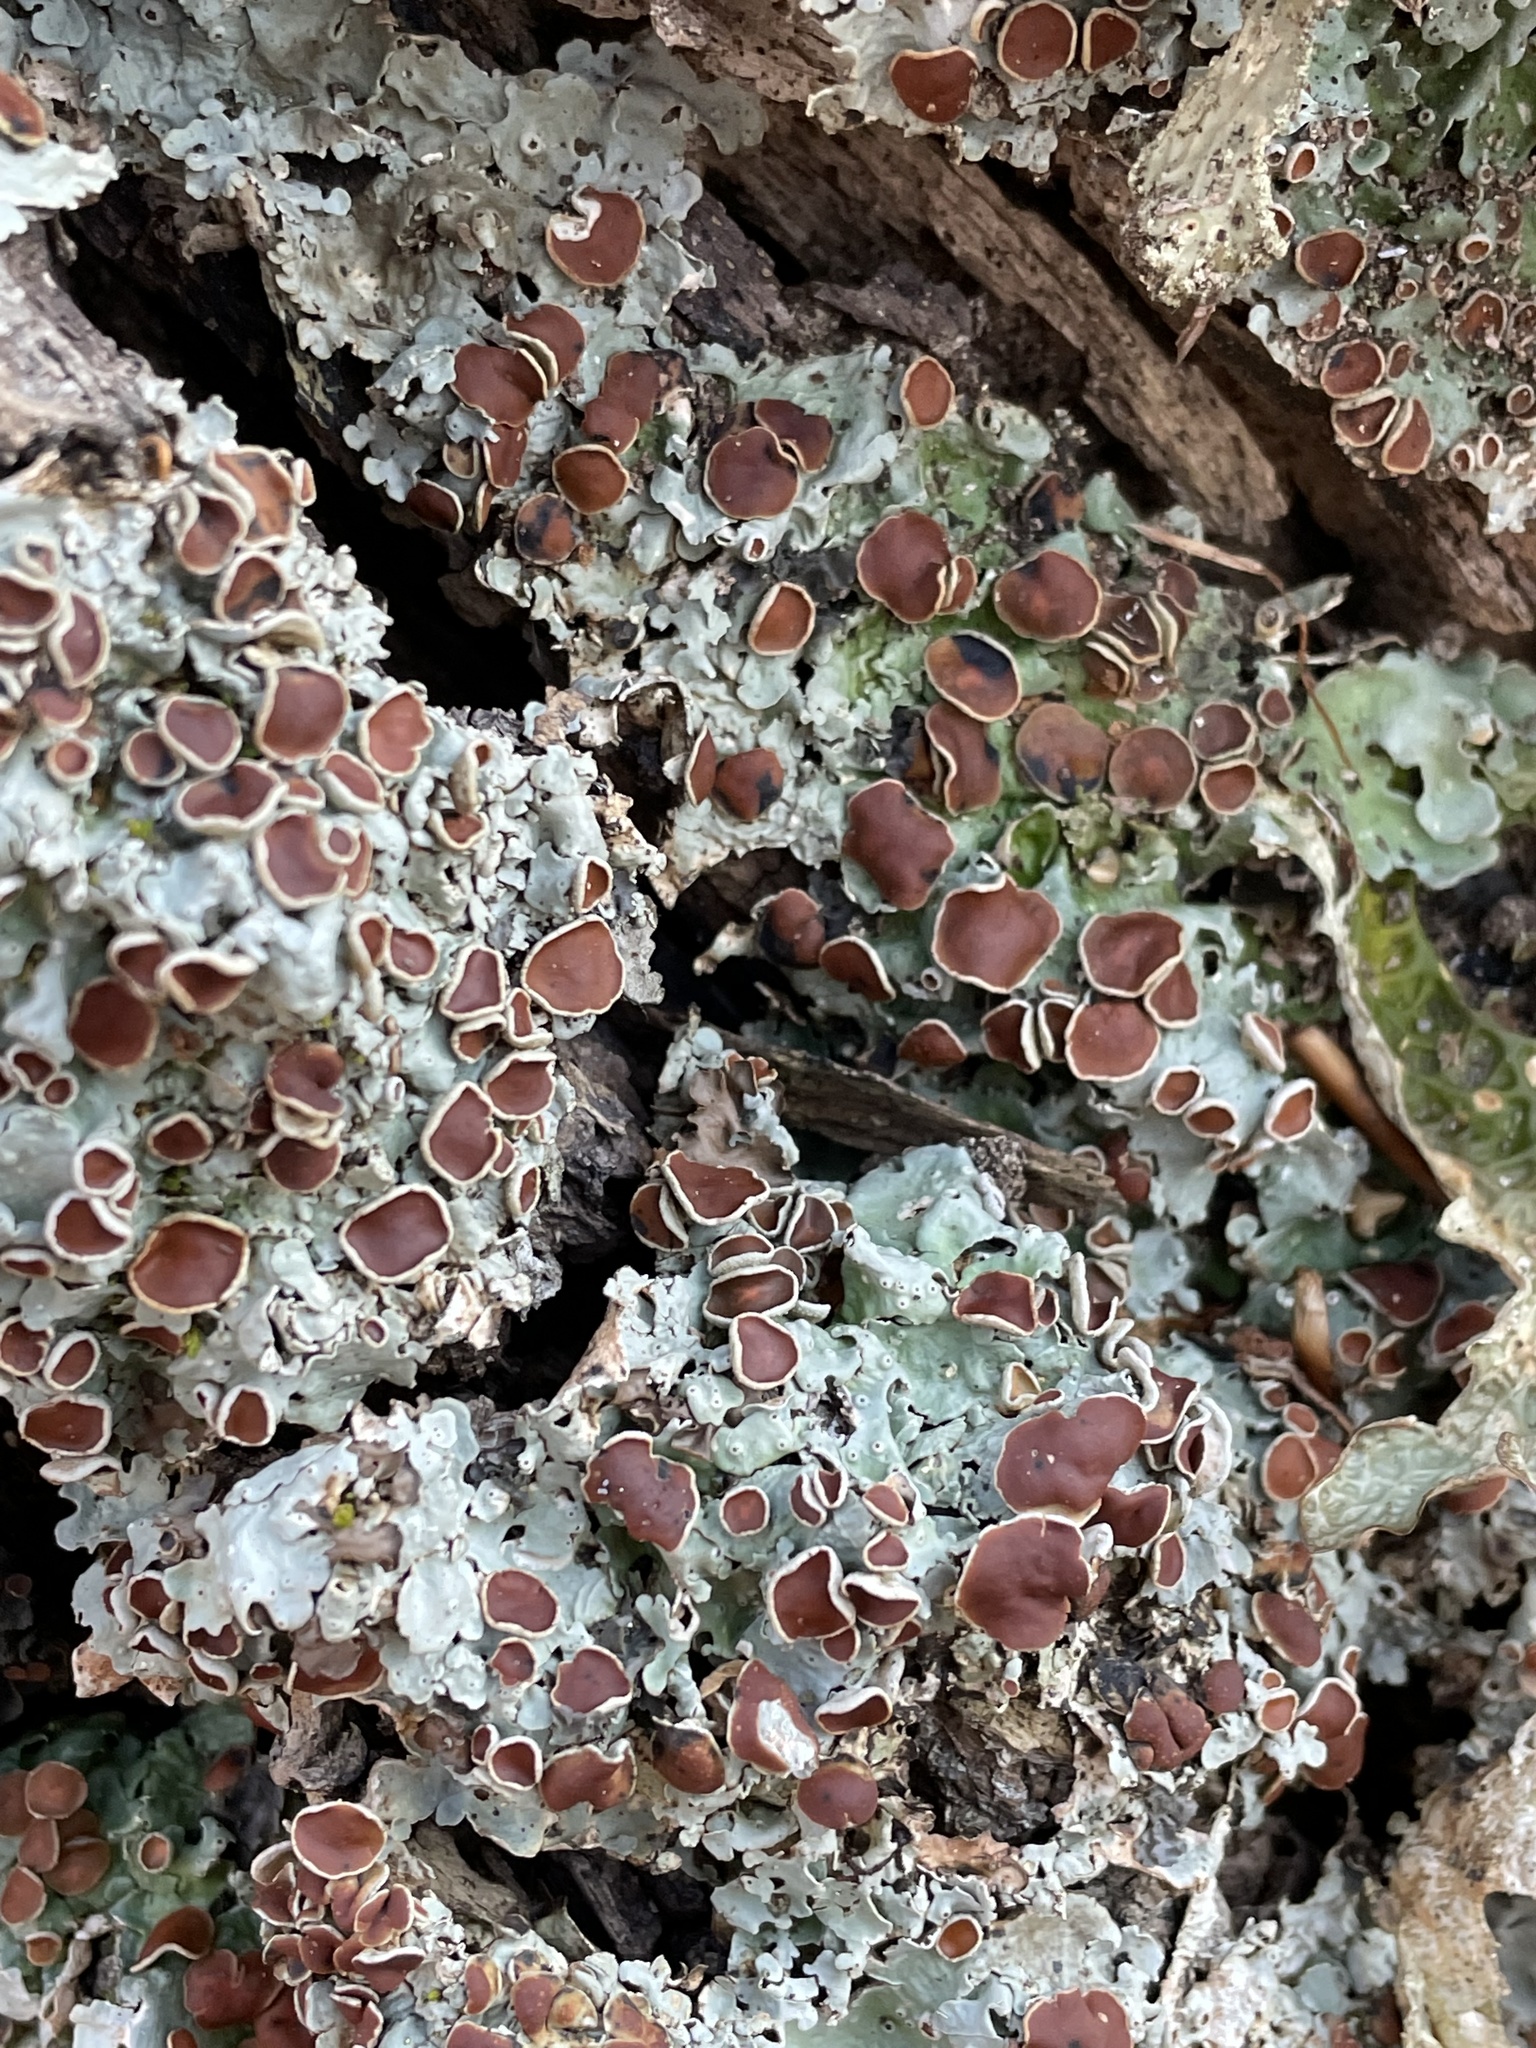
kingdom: Fungi
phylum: Ascomycota
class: Lecanoromycetes
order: Peltigerales
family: Lobariaceae
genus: Ricasolia
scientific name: Ricasolia quercizans
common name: Smooth lungwort
